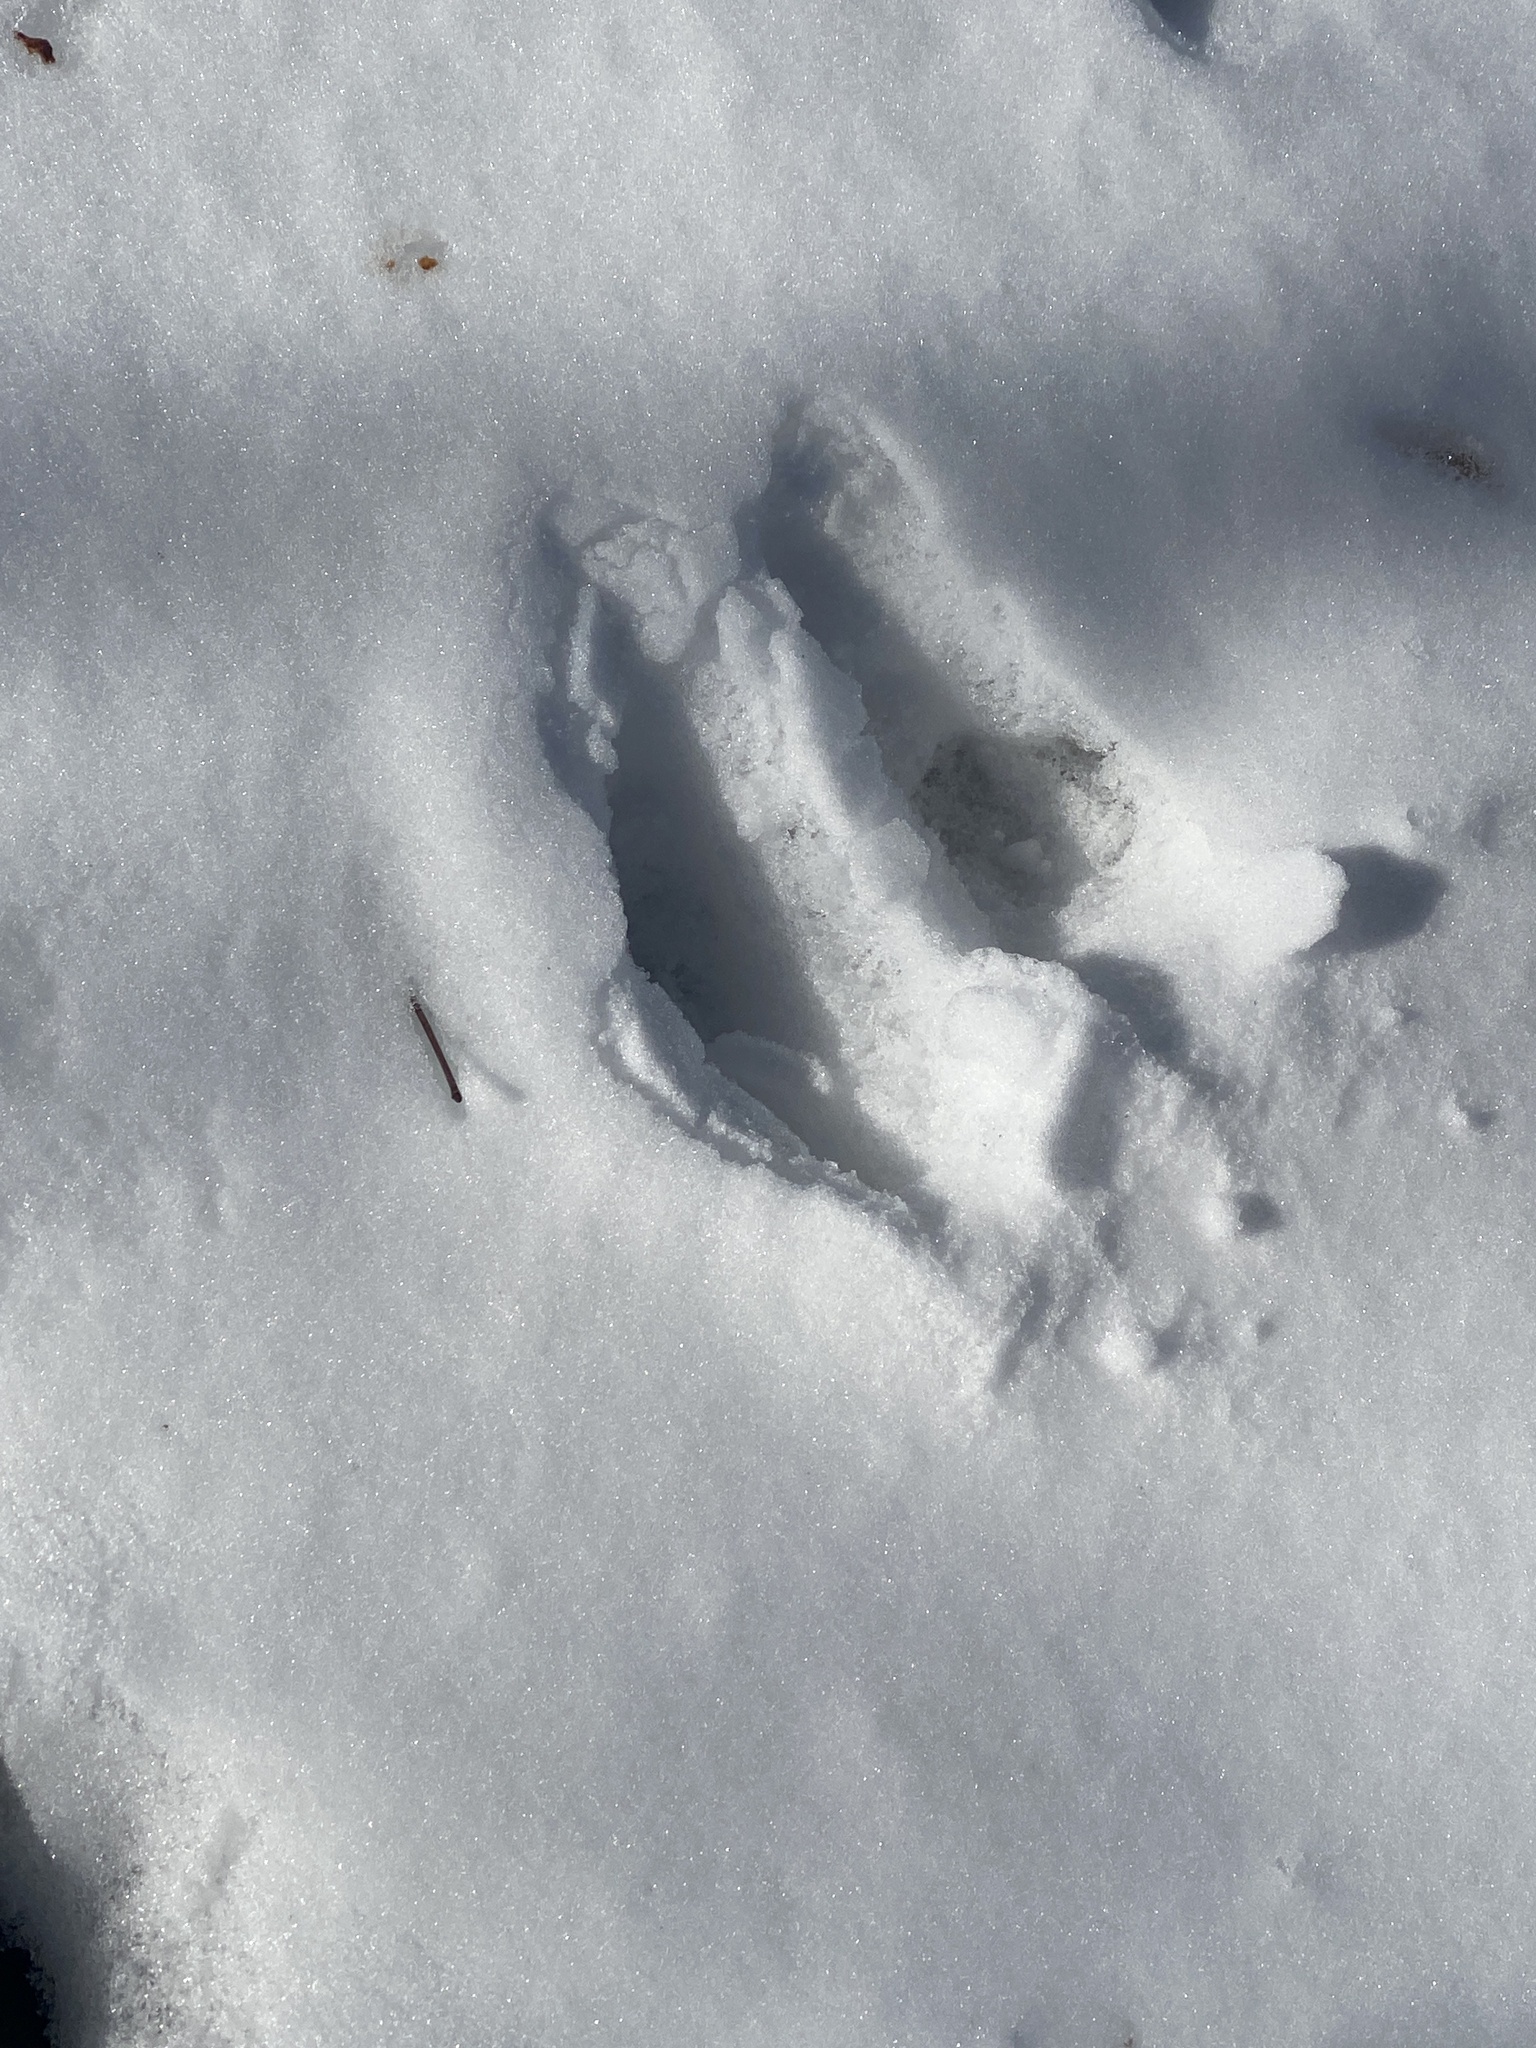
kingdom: Animalia
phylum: Chordata
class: Mammalia
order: Artiodactyla
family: Cervidae
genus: Odocoileus
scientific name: Odocoileus virginianus
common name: White-tailed deer
